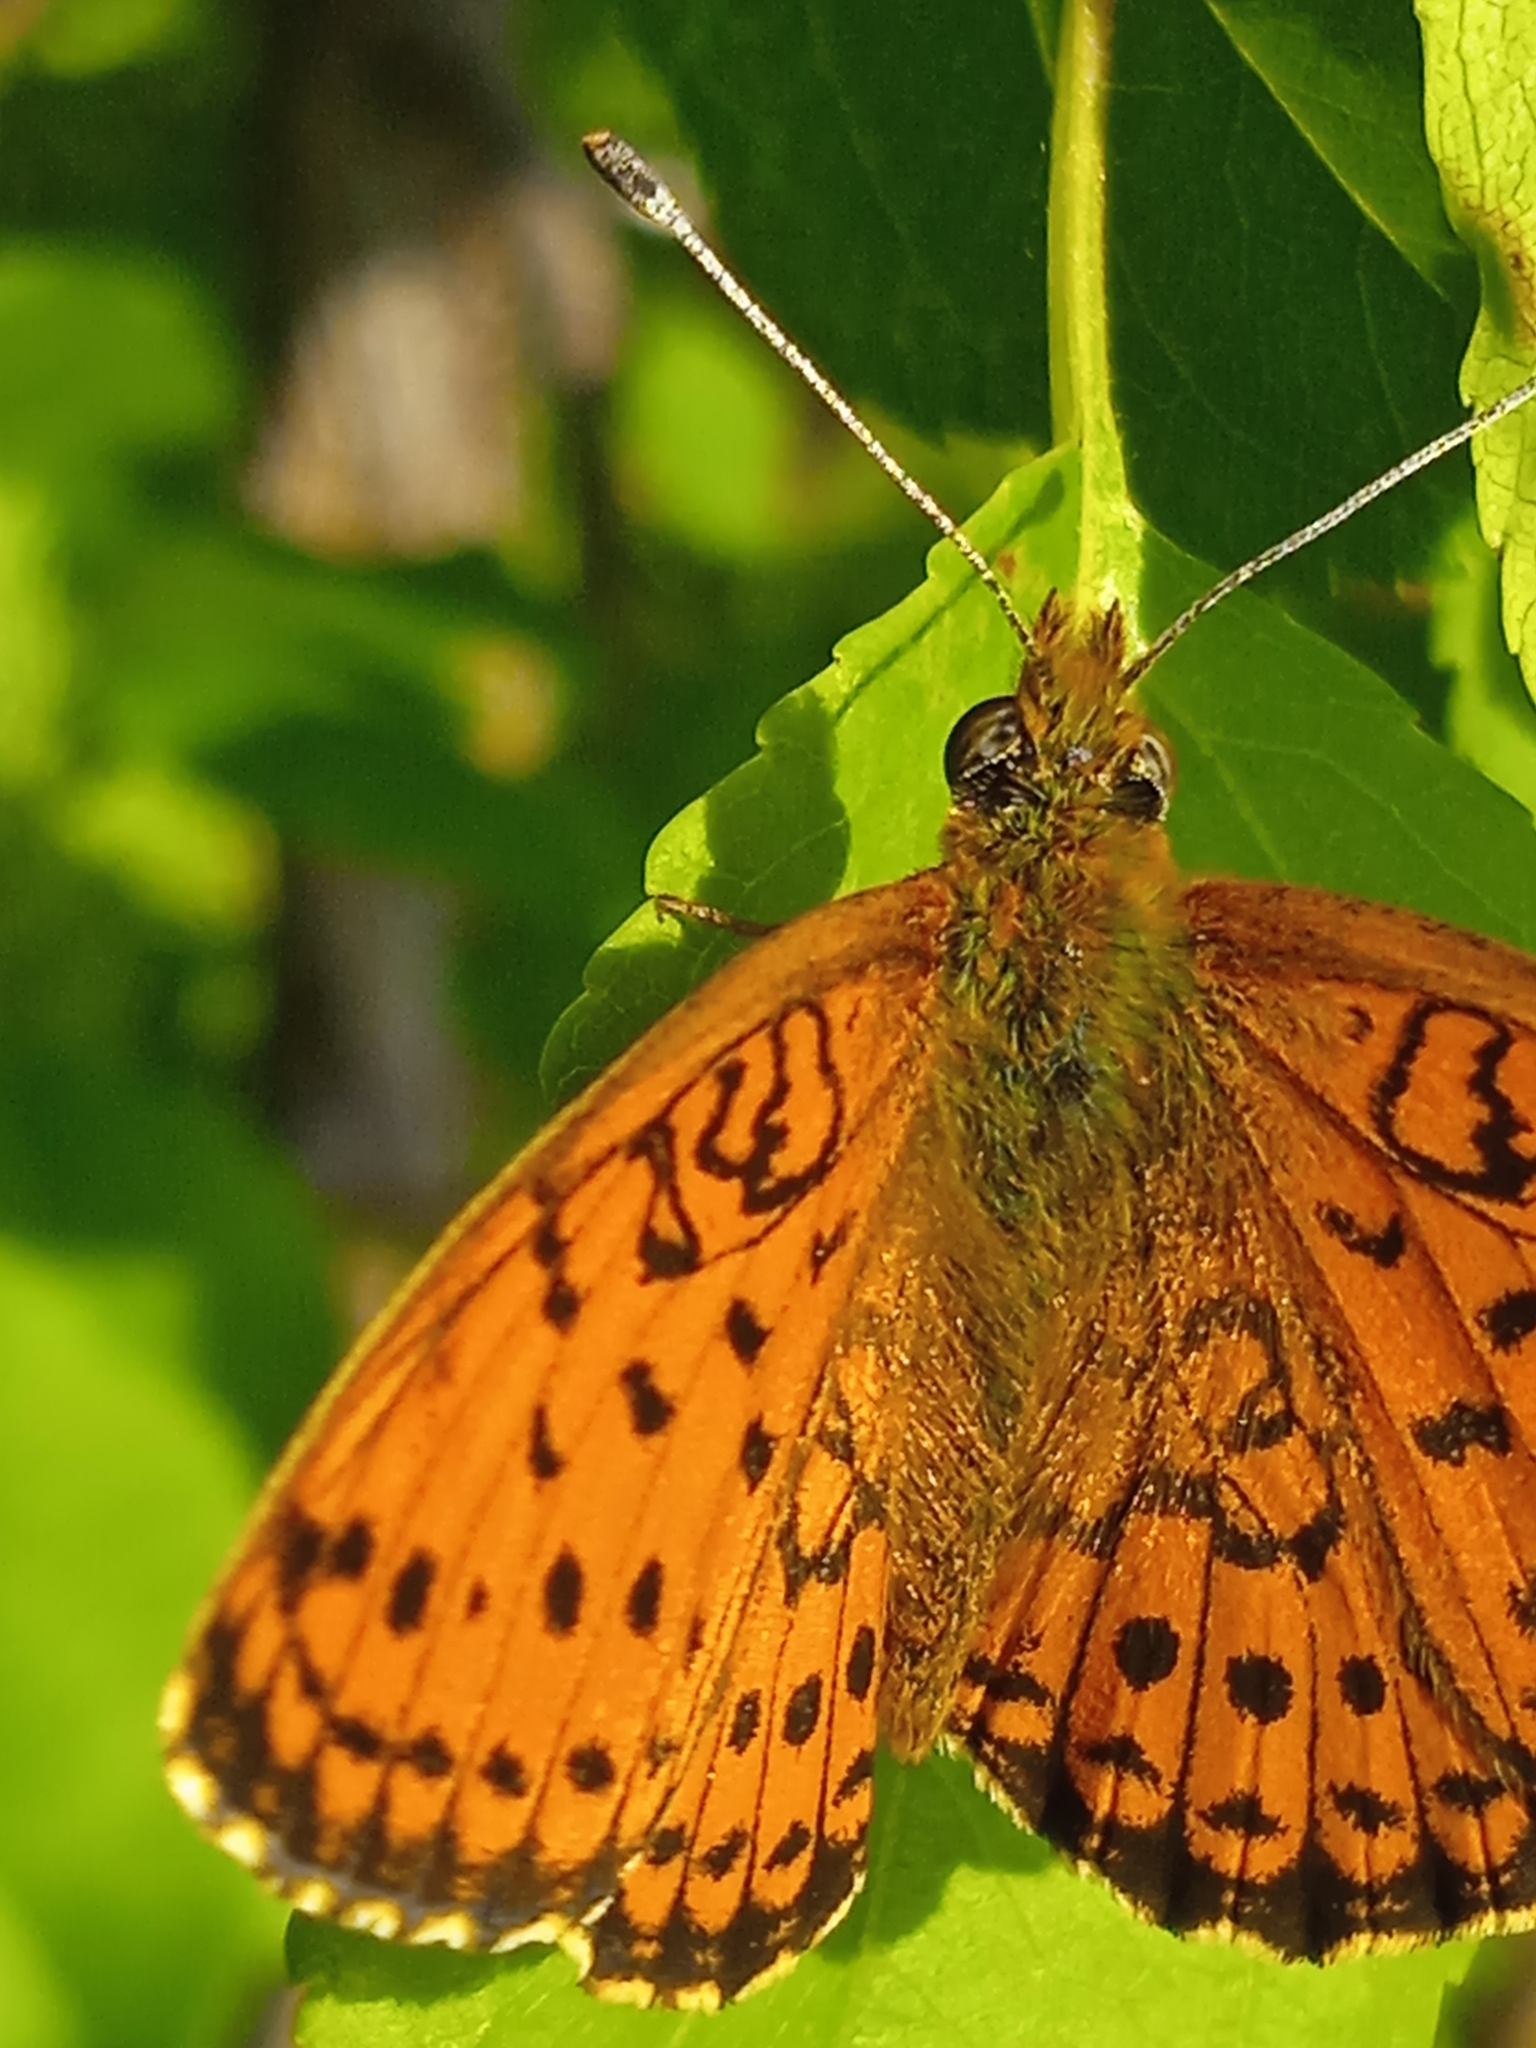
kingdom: Animalia
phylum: Arthropoda
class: Insecta
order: Lepidoptera
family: Nymphalidae
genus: Brenthis
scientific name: Brenthis ino
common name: Lesser marbled fritillary
